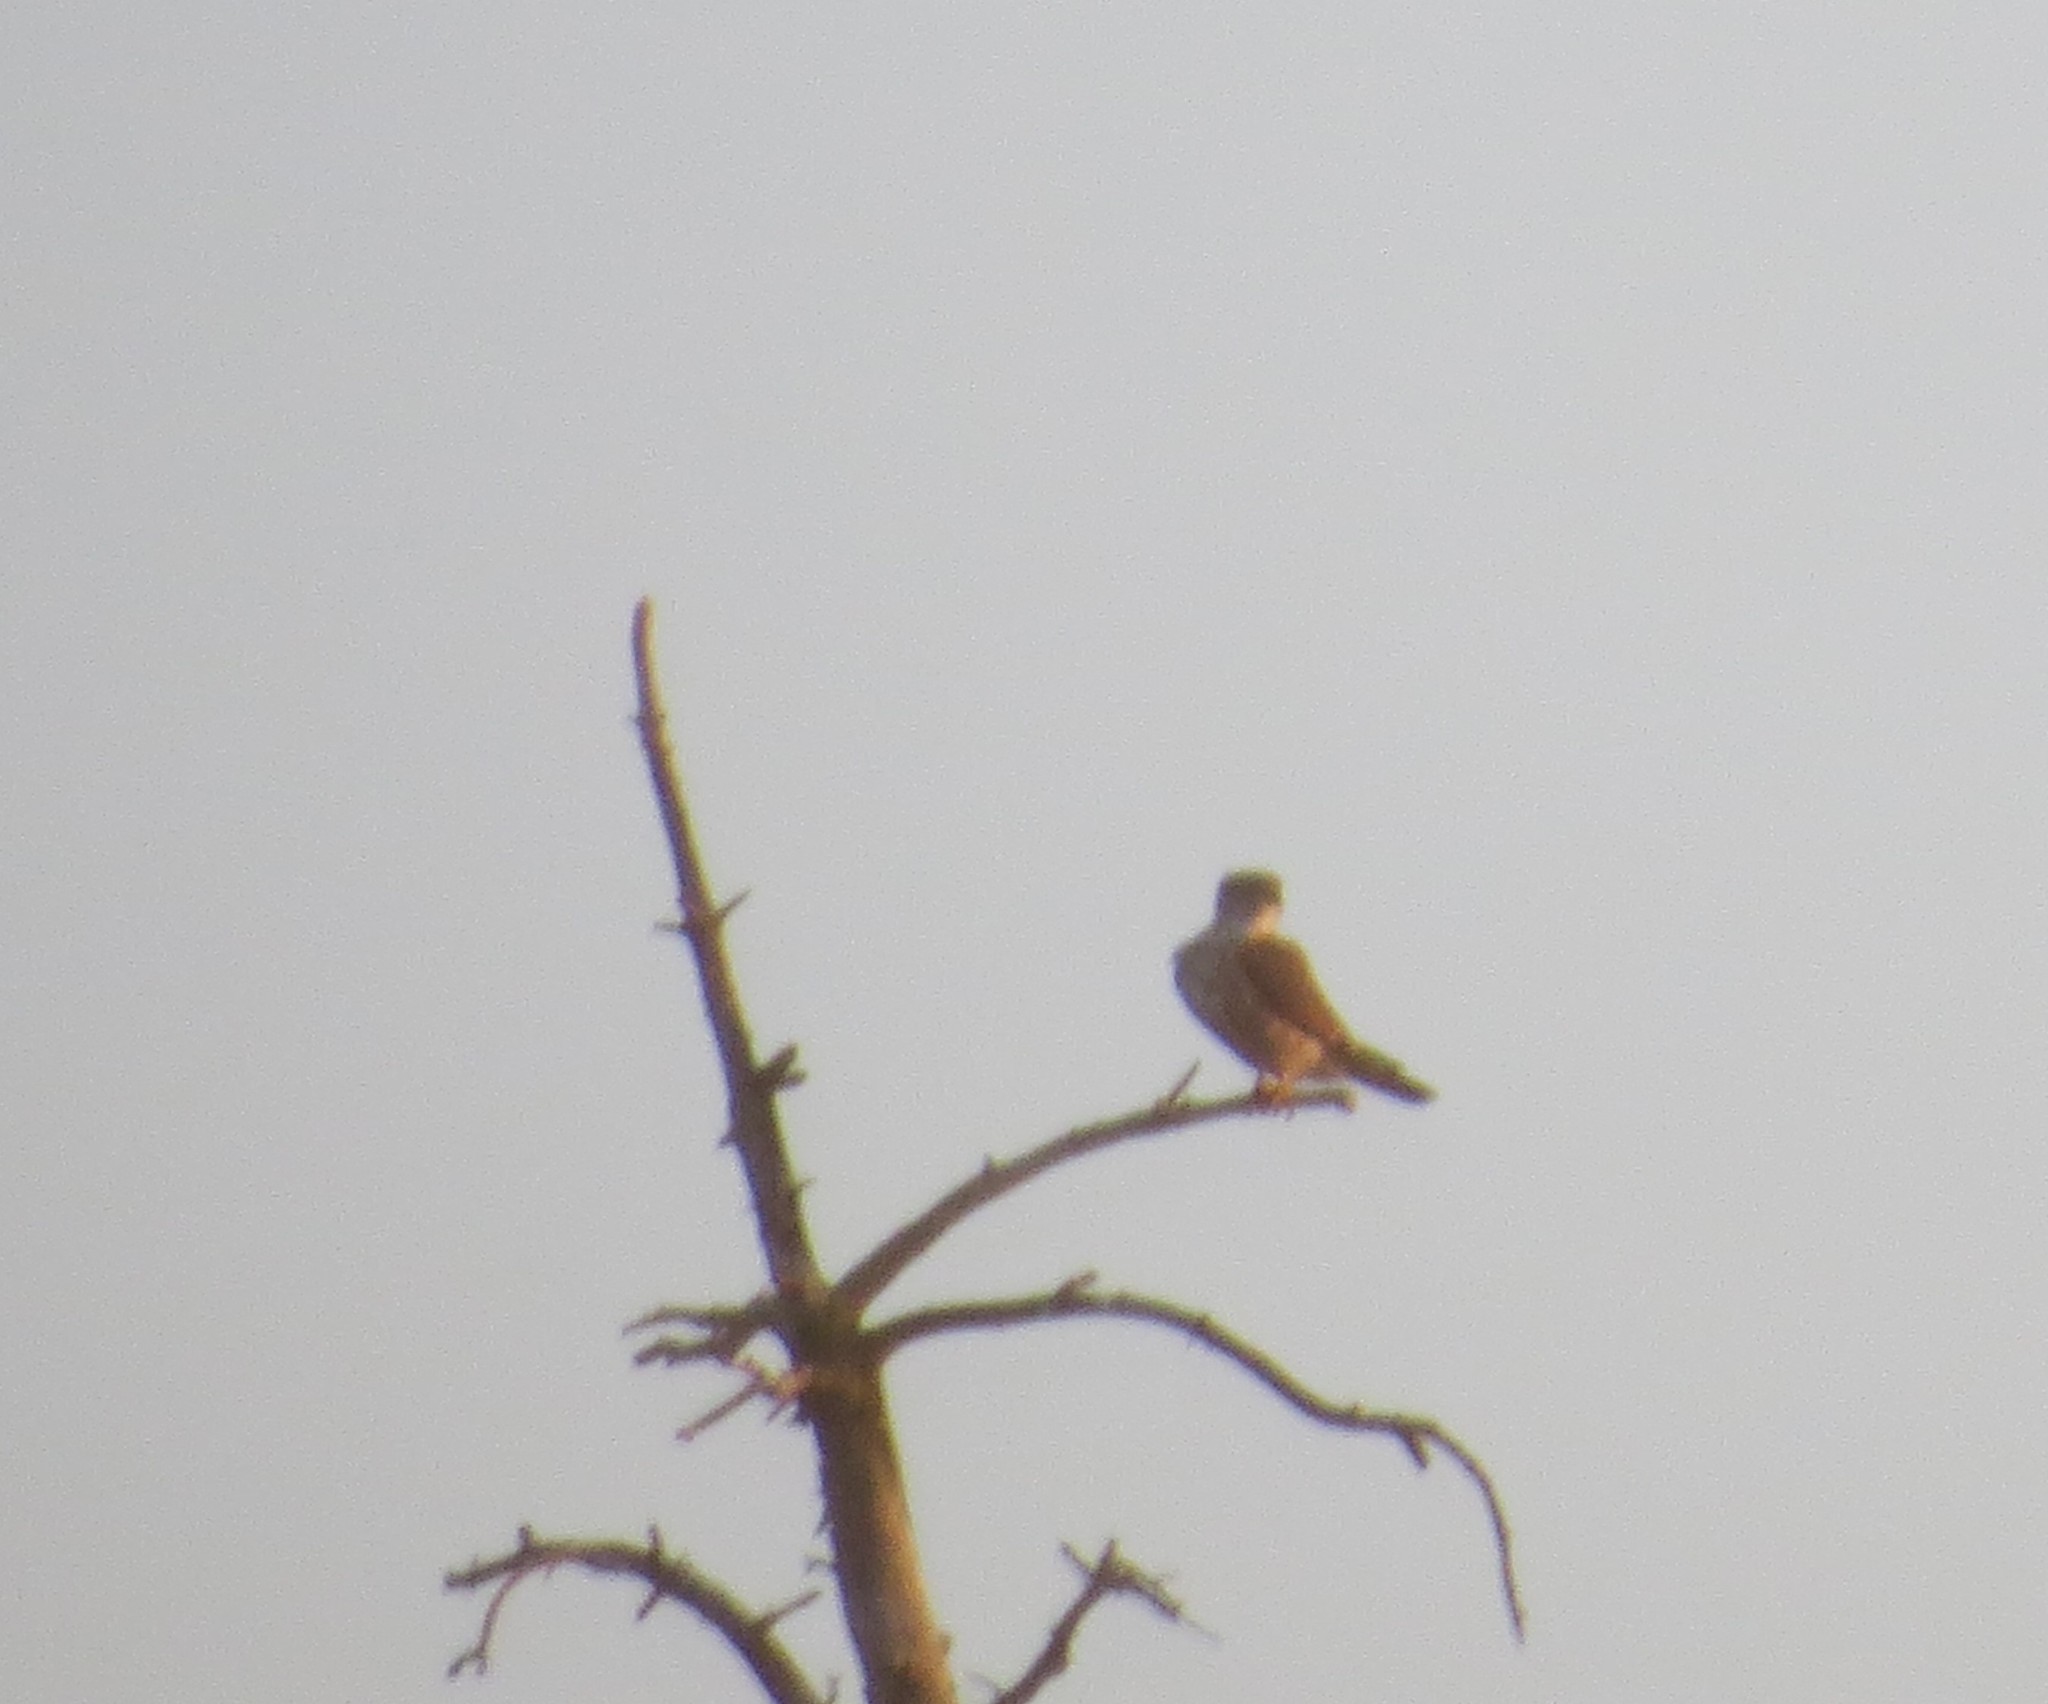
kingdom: Animalia
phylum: Chordata
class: Aves
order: Falconiformes
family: Falconidae
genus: Falco
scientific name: Falco columbarius
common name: Merlin
